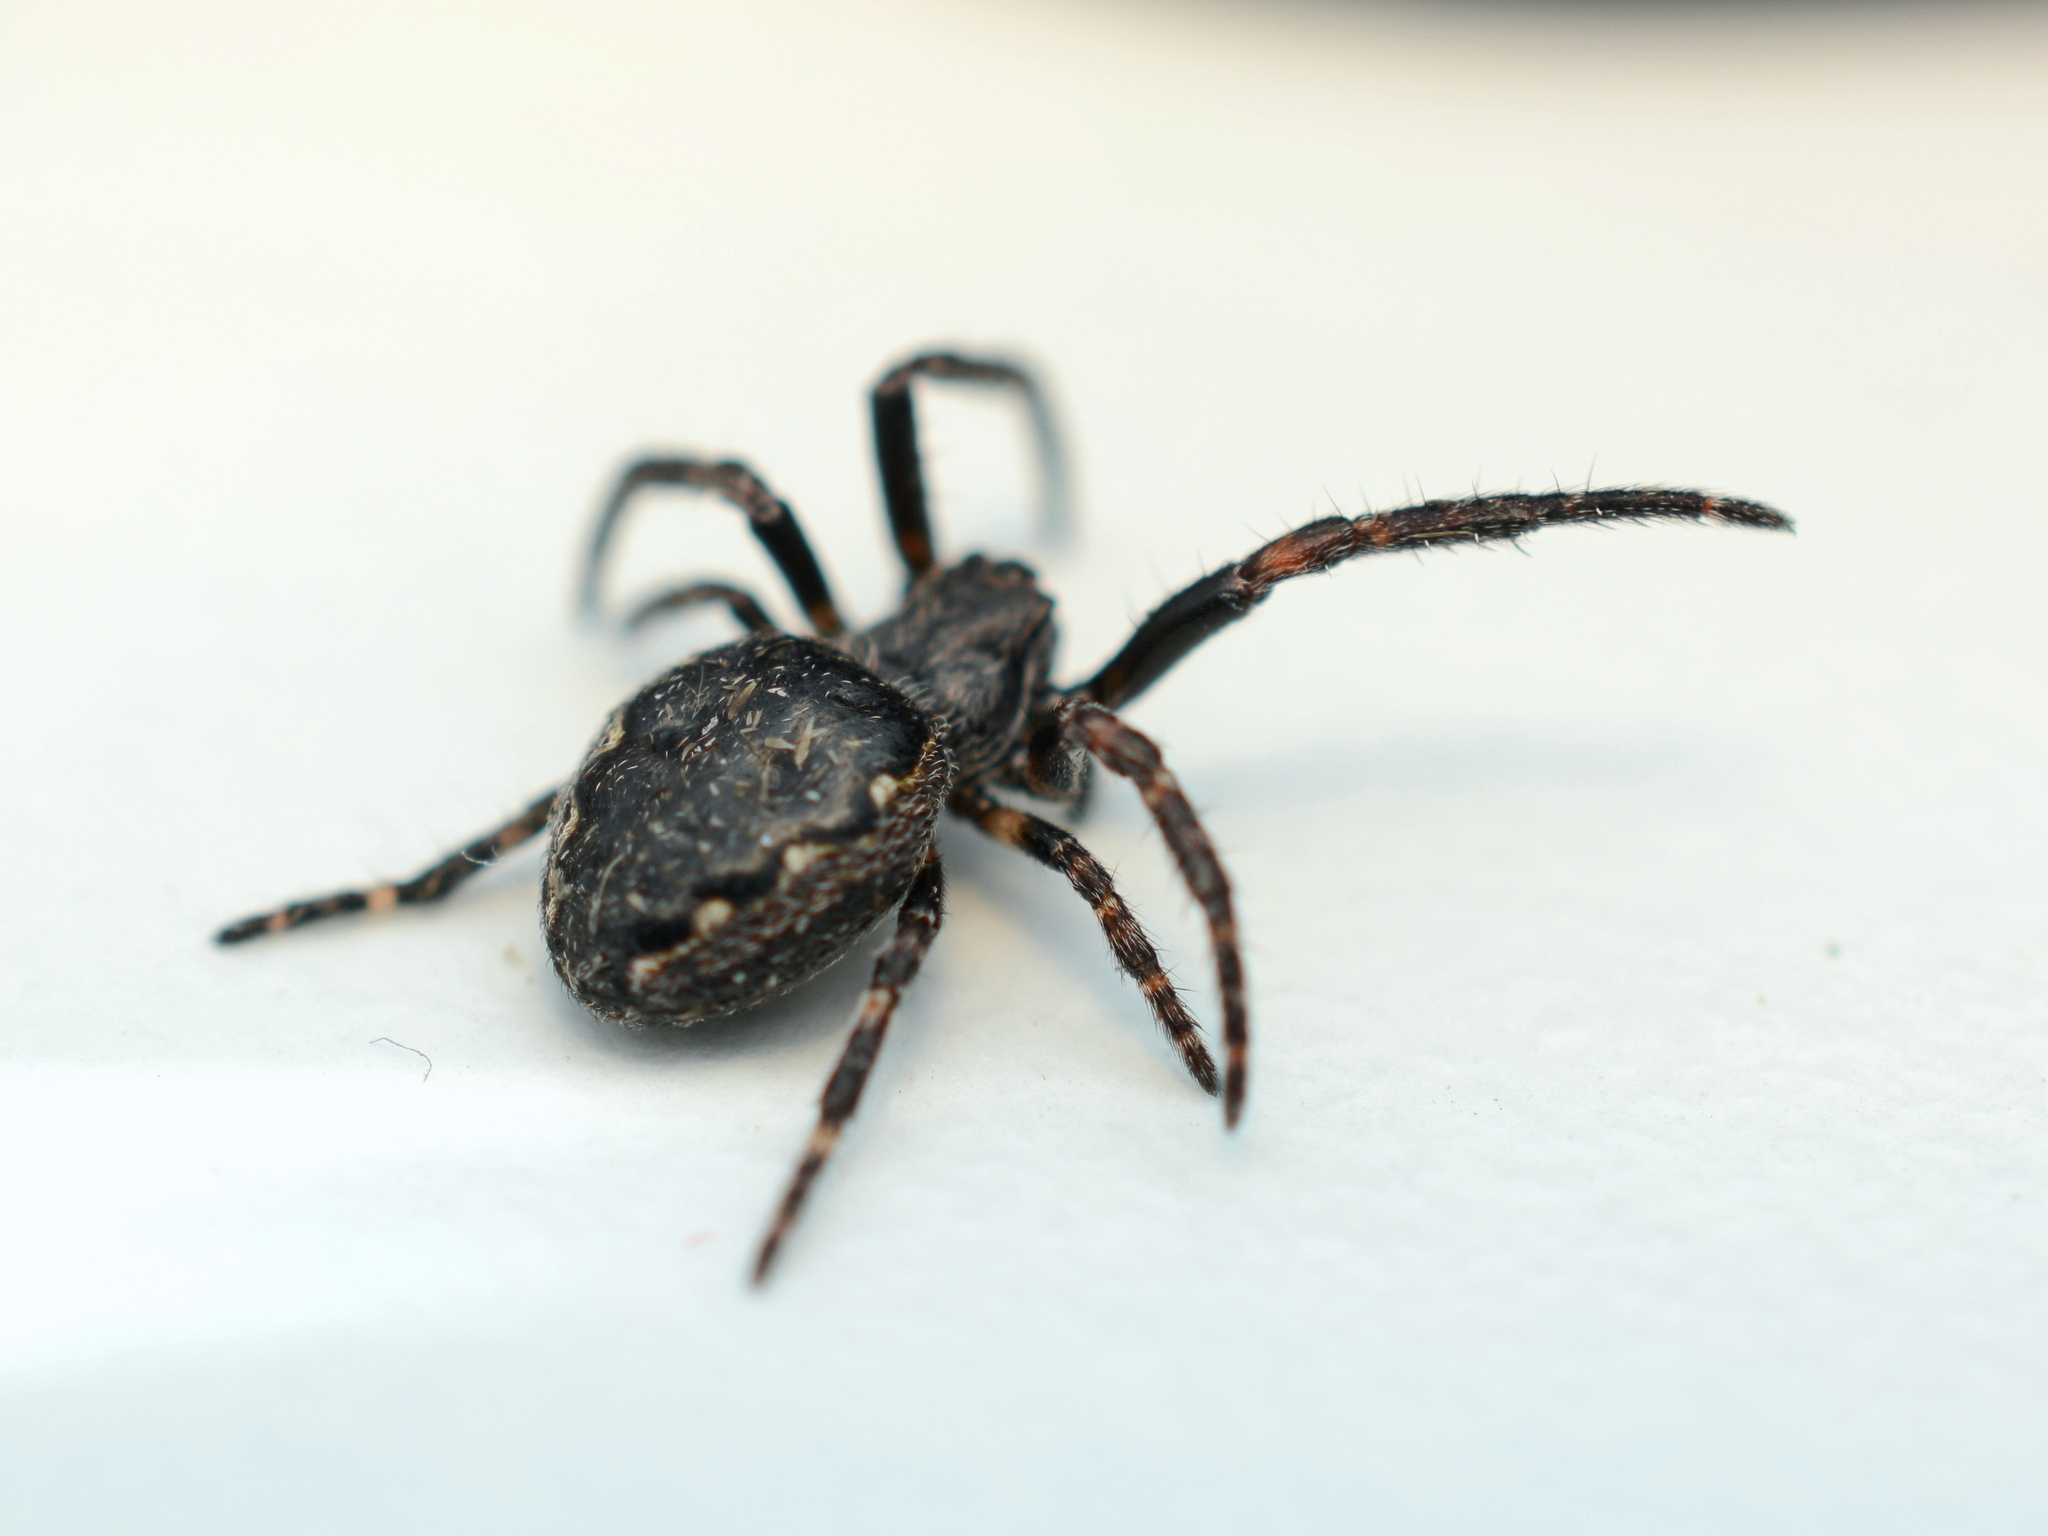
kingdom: Animalia
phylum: Arthropoda
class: Arachnida
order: Araneae
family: Araneidae
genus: Nuctenea
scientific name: Nuctenea umbratica
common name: Toad spider
